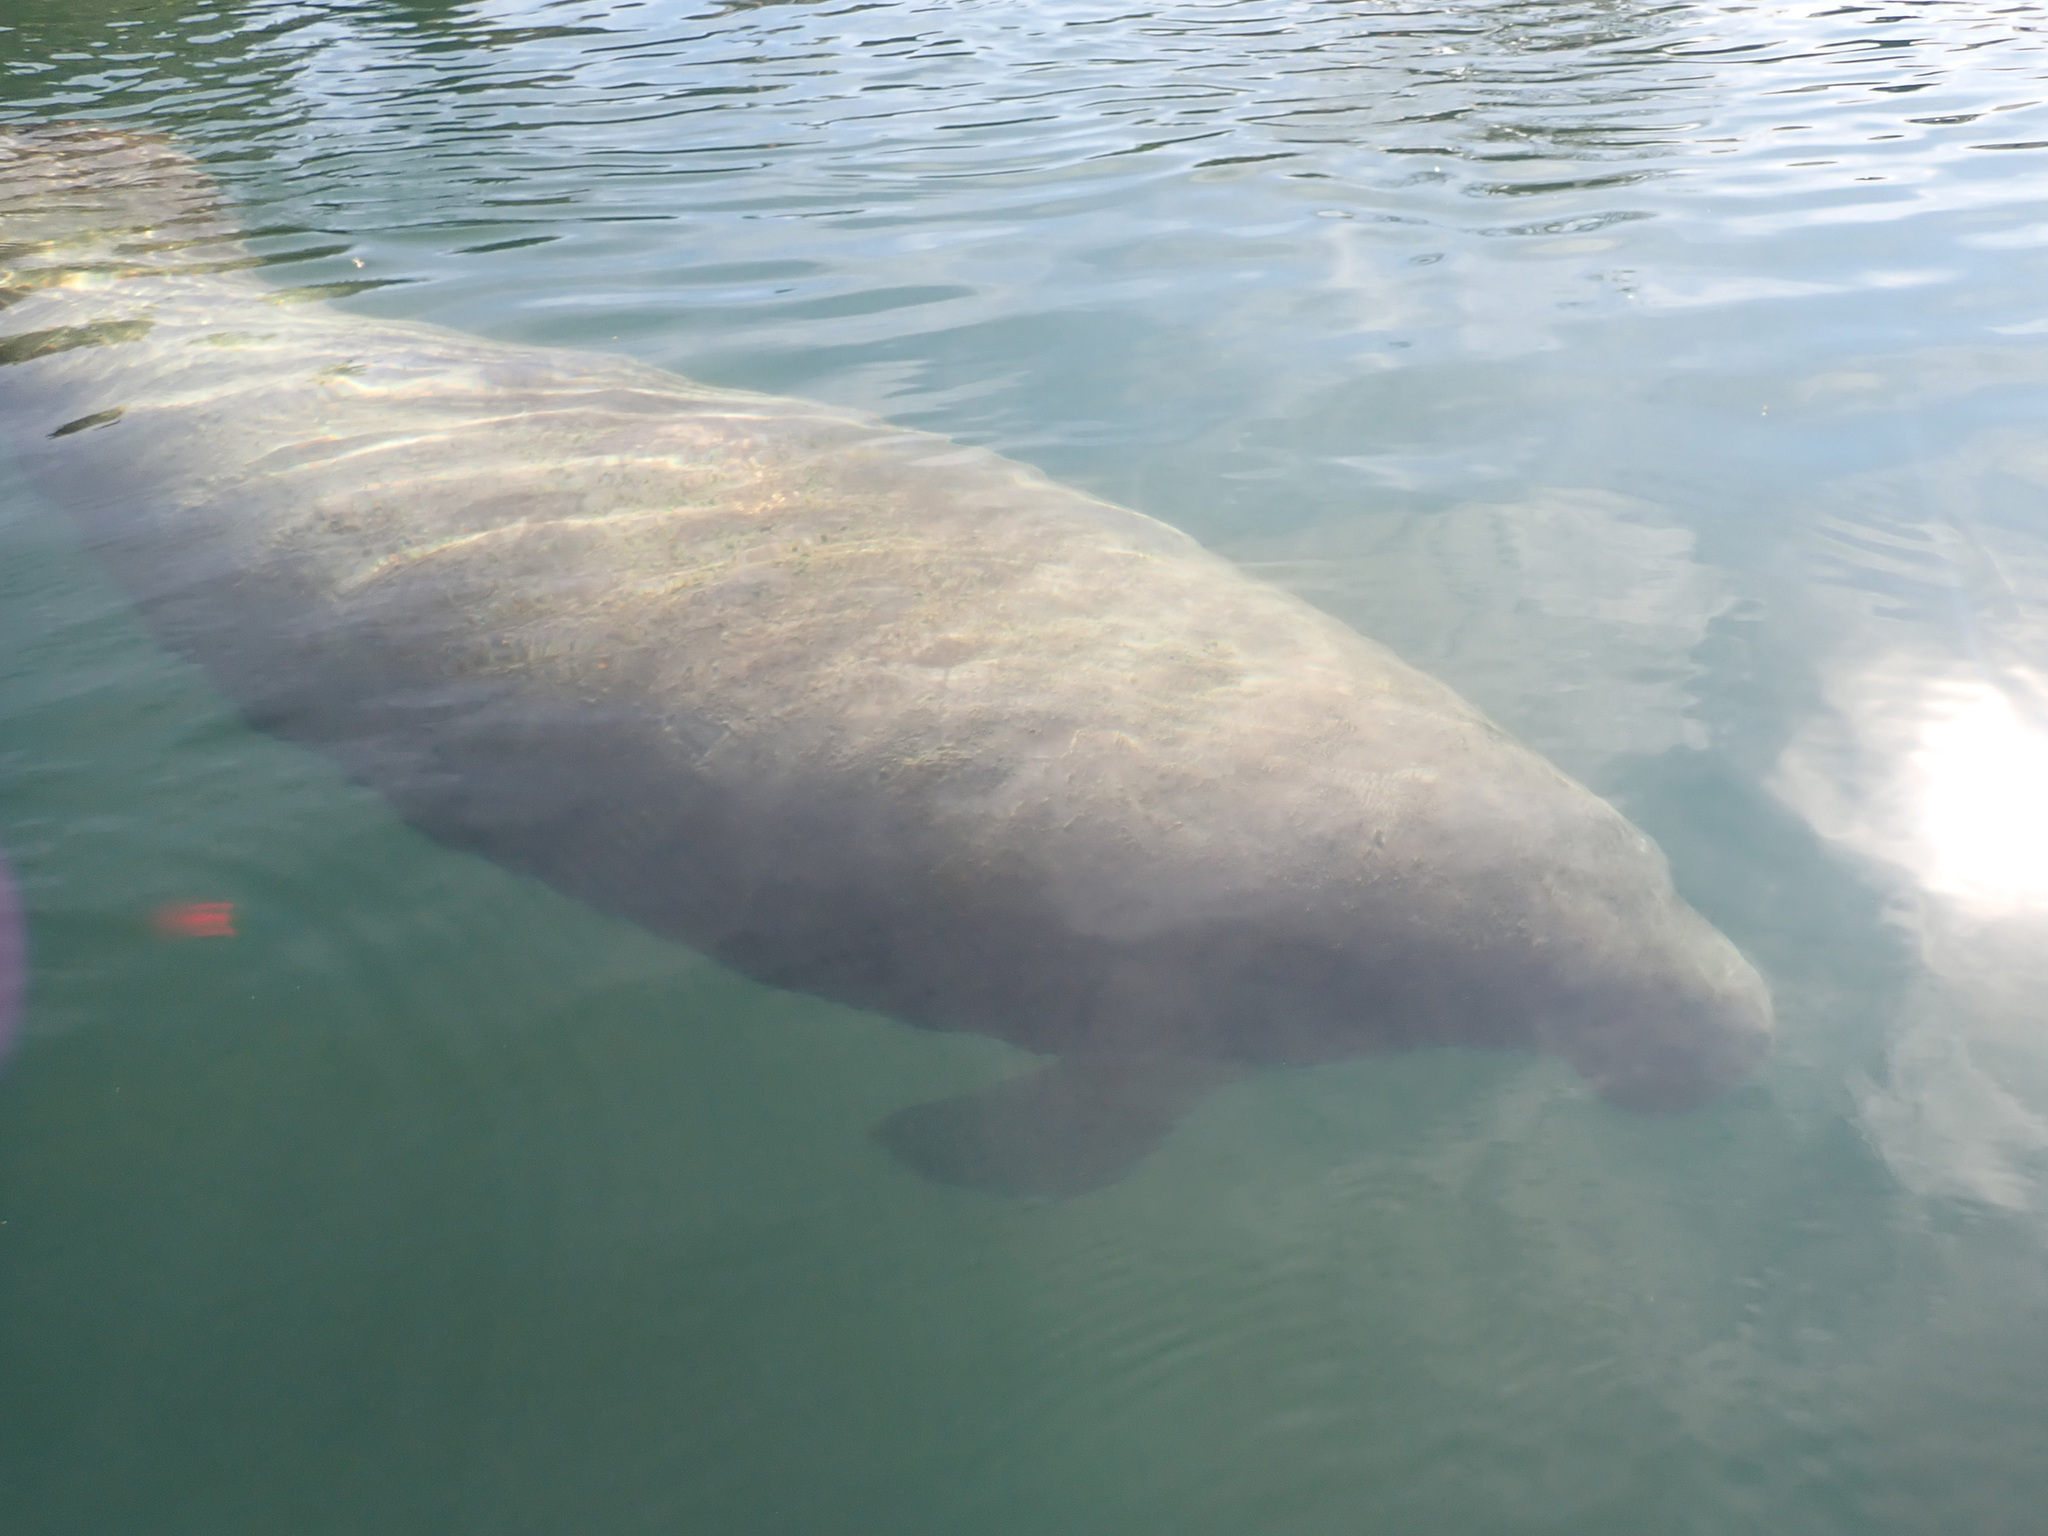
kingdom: Animalia
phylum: Chordata
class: Mammalia
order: Sirenia
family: Trichechidae
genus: Trichechus
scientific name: Trichechus manatus
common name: West indian manatee
